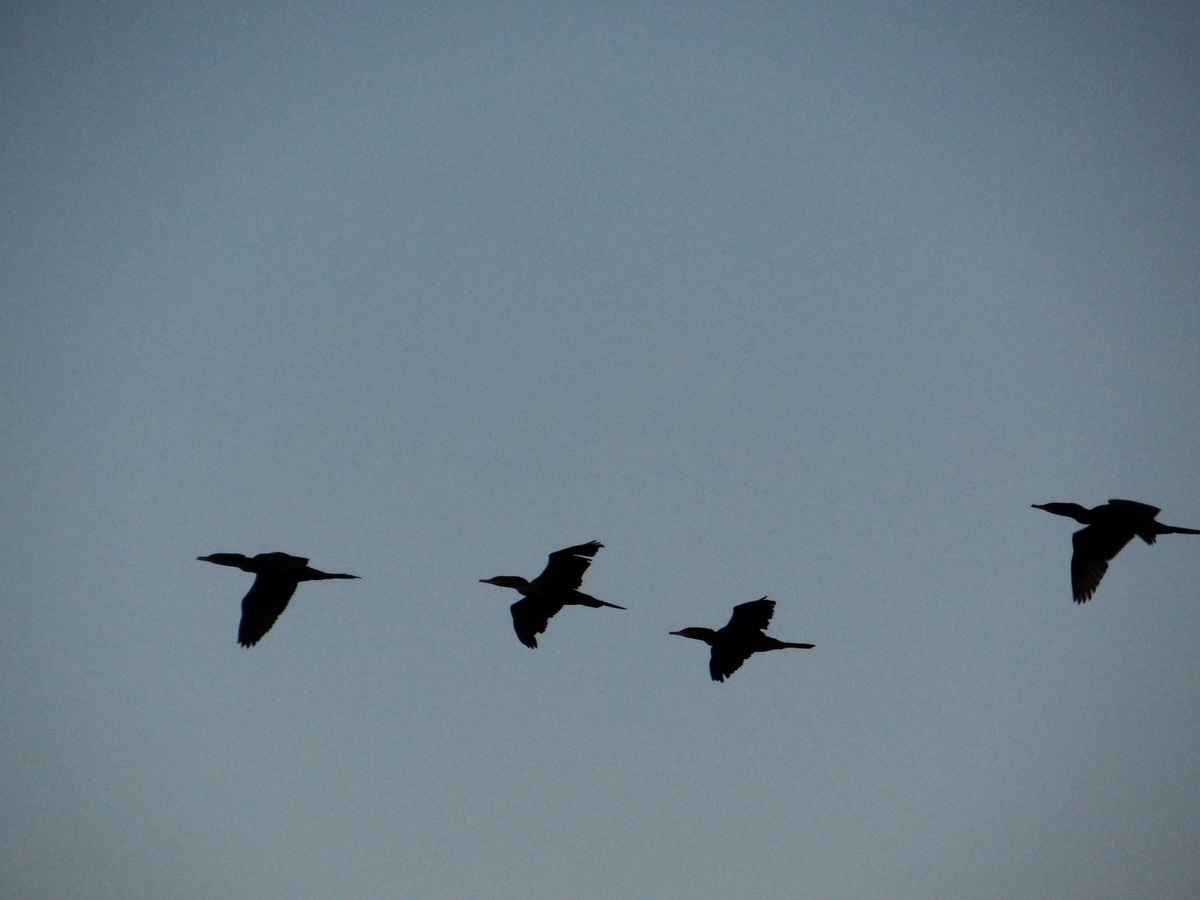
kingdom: Animalia
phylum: Chordata
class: Aves
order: Suliformes
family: Phalacrocoracidae
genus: Phalacrocorax
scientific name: Phalacrocorax brasilianus
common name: Neotropic cormorant
